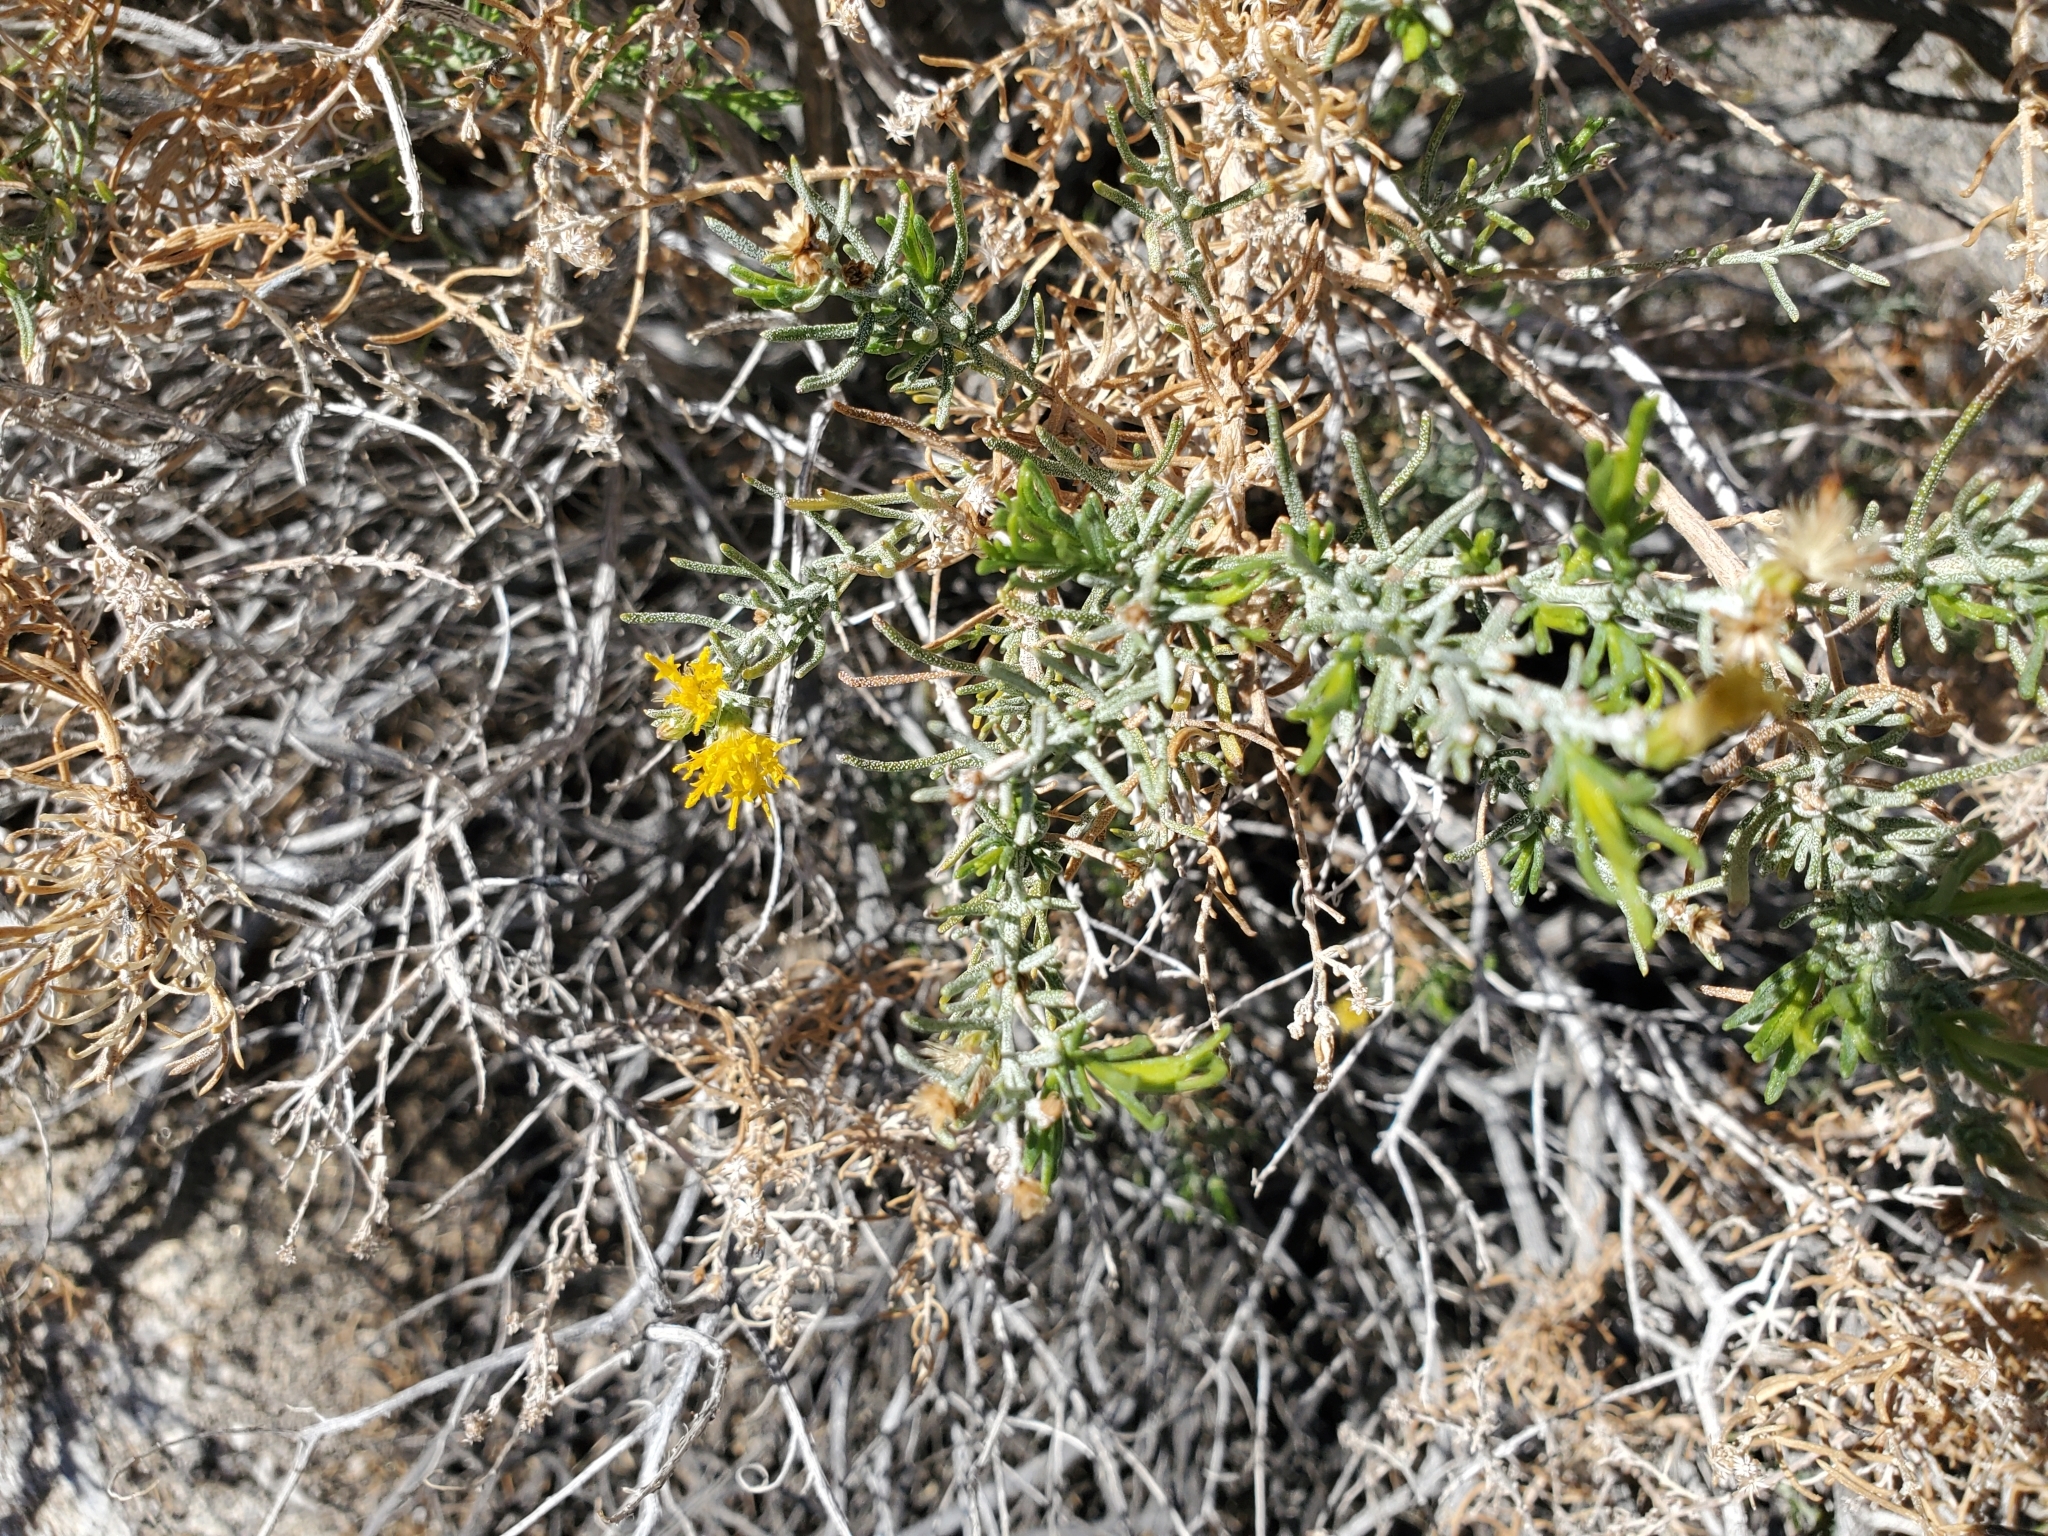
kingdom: Plantae
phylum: Tracheophyta
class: Magnoliopsida
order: Asterales
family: Asteraceae
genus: Ericameria
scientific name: Ericameria brachylepis
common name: Boundary goldenbush
